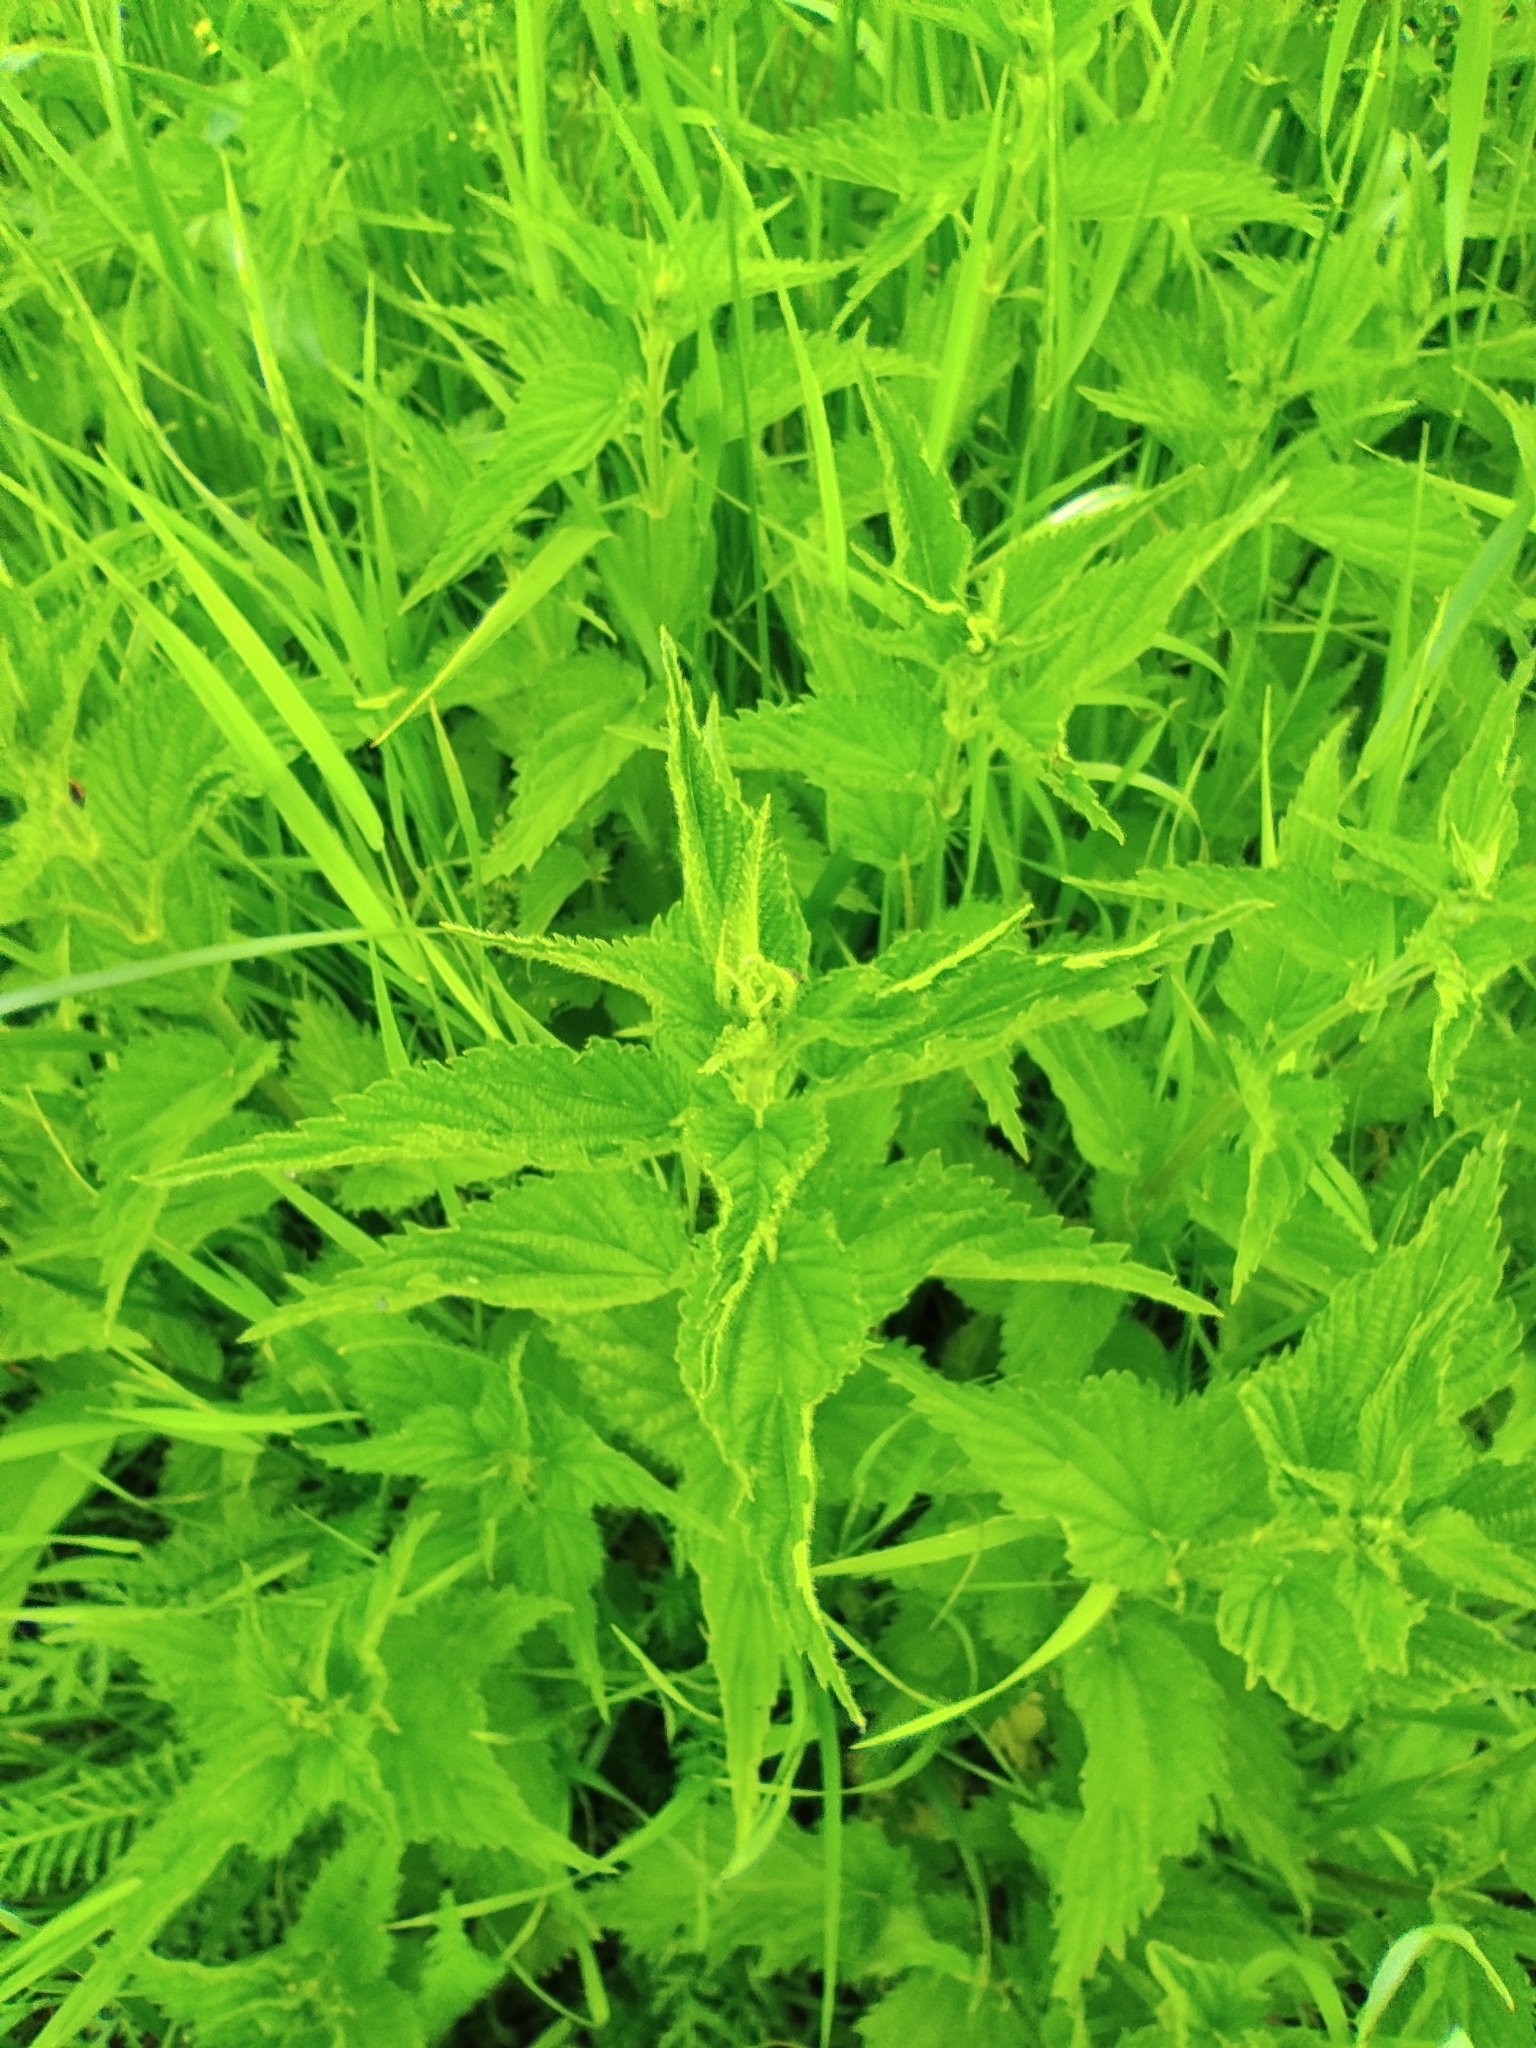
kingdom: Plantae
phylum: Tracheophyta
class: Magnoliopsida
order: Rosales
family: Urticaceae
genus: Urtica
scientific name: Urtica dioica
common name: Common nettle
